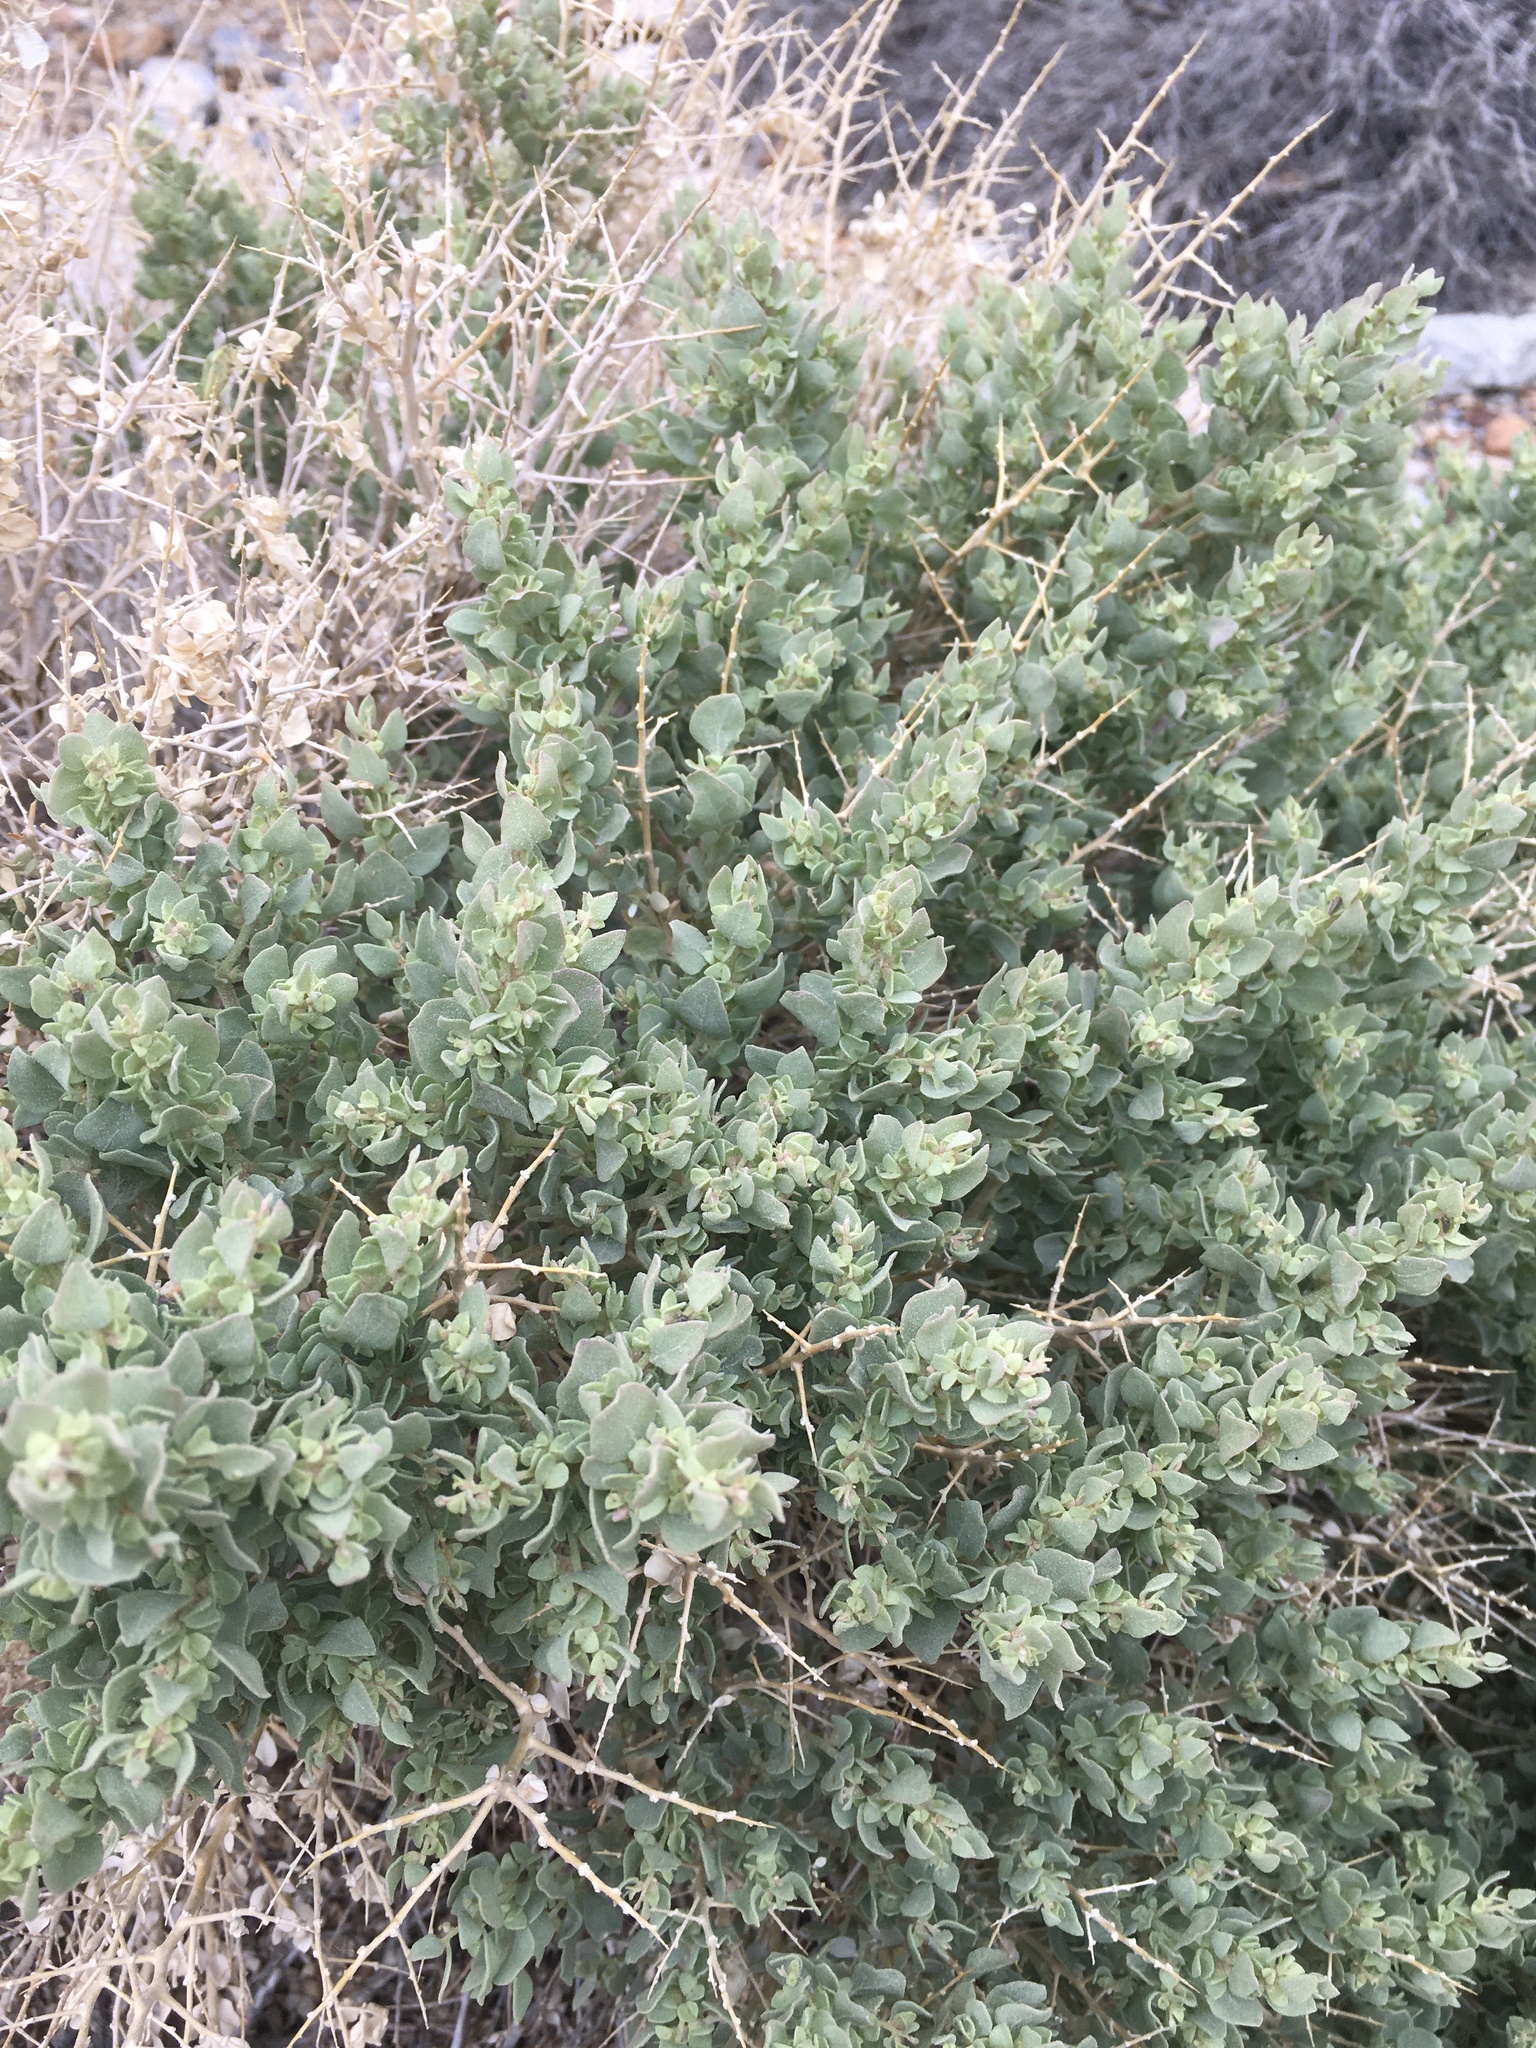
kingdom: Plantae
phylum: Tracheophyta
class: Magnoliopsida
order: Caryophyllales
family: Amaranthaceae
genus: Atriplex
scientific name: Atriplex confertifolia
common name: Shadscale
